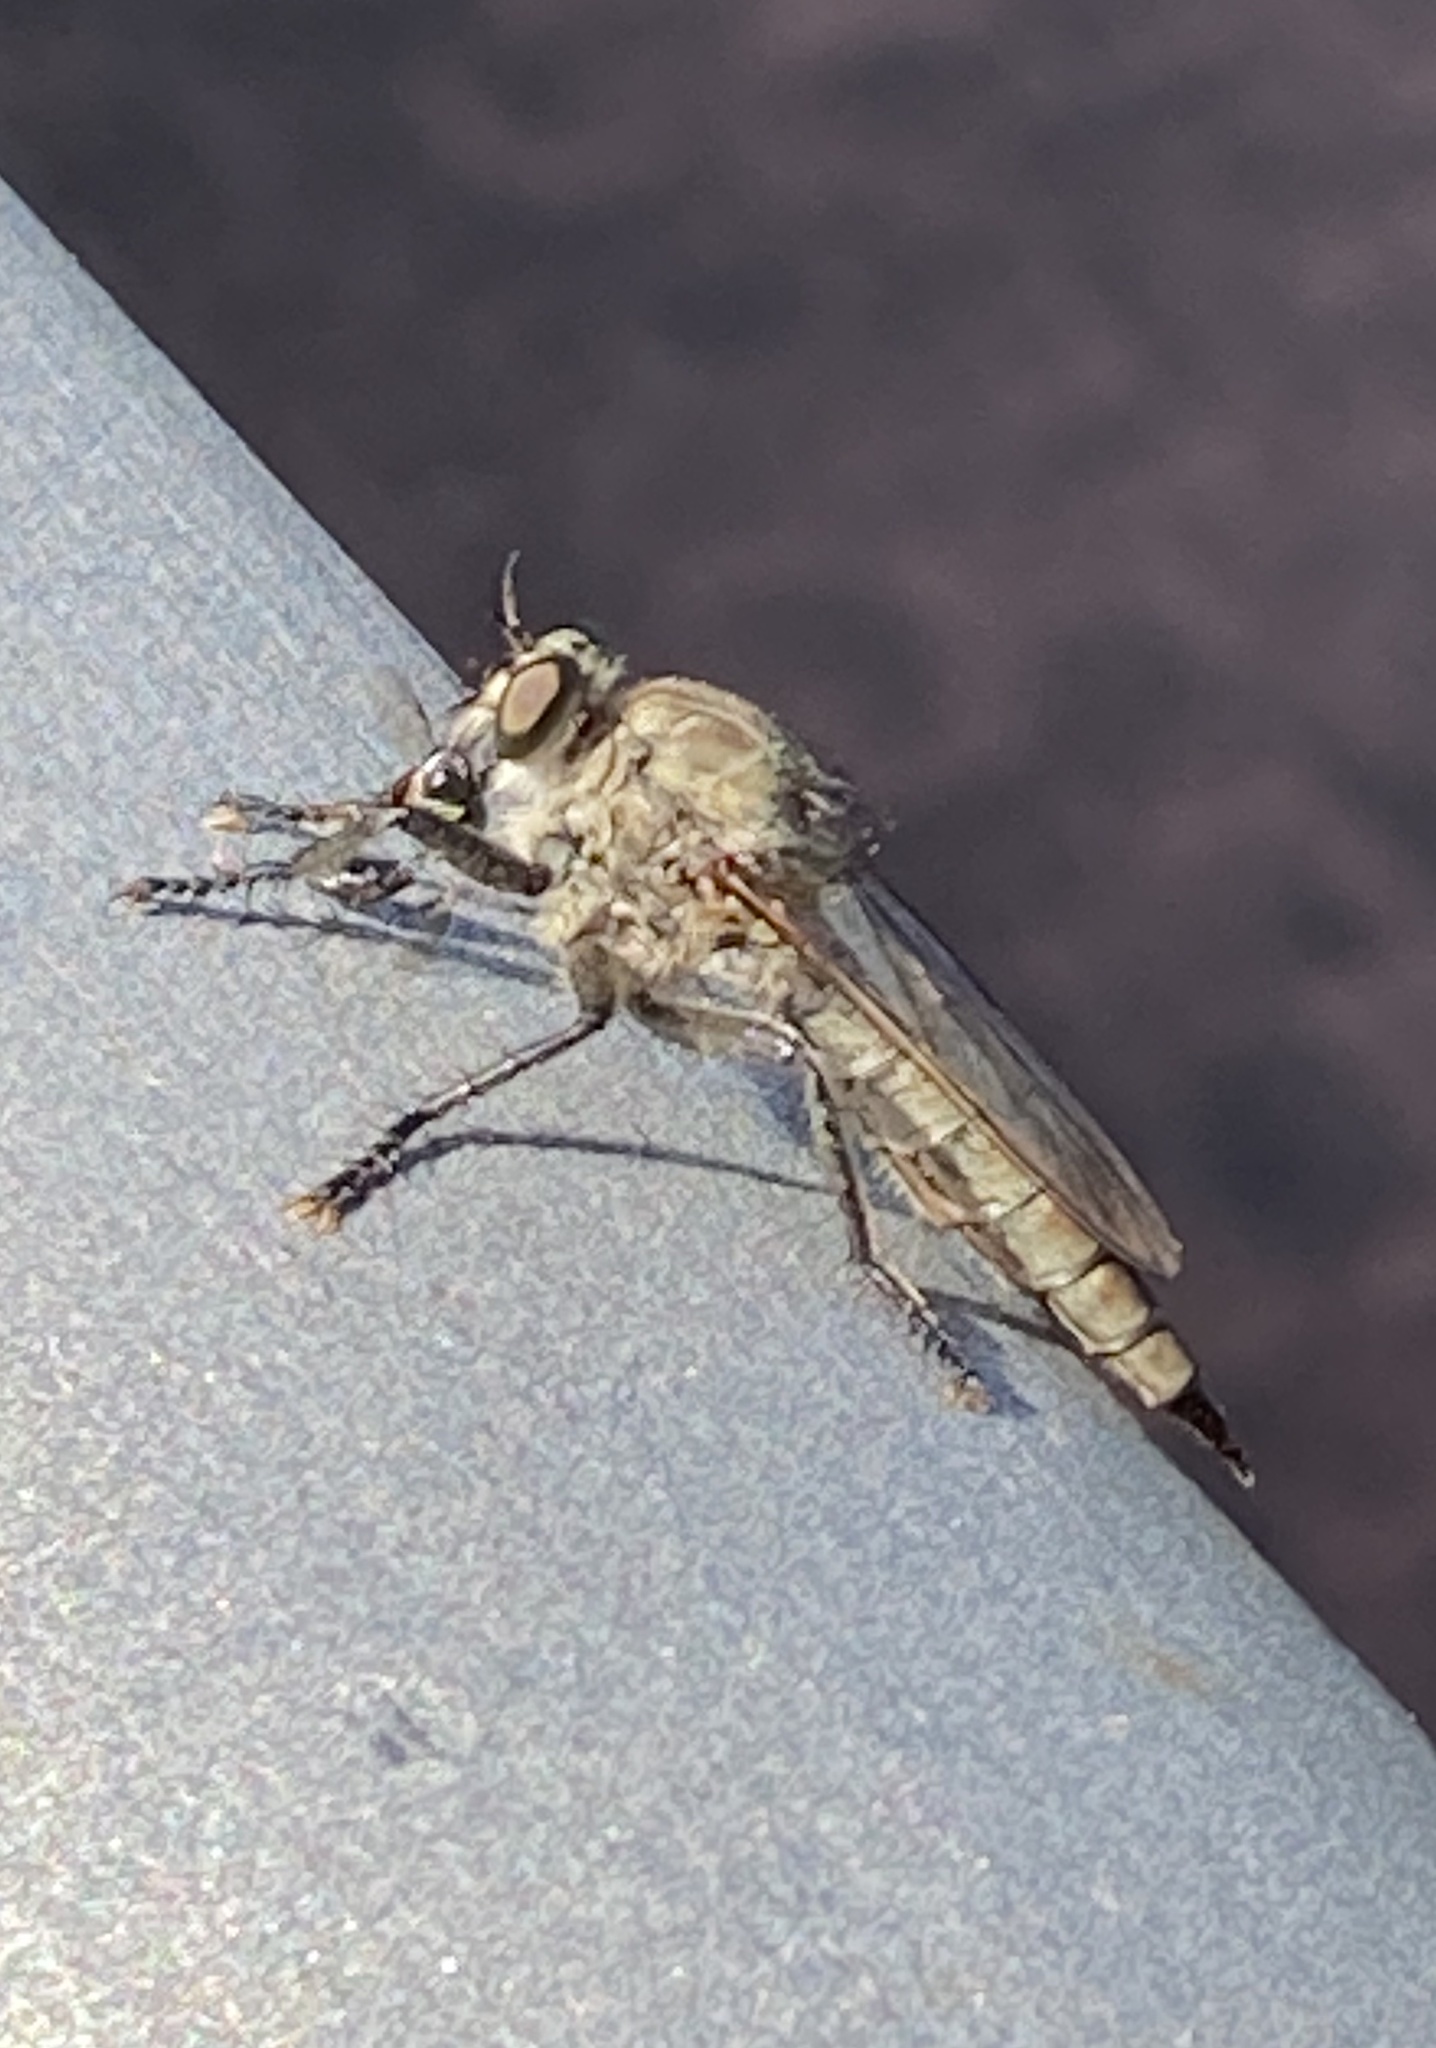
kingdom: Animalia
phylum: Arthropoda
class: Insecta
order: Diptera
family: Asilidae
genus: Machimus
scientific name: Machimus
